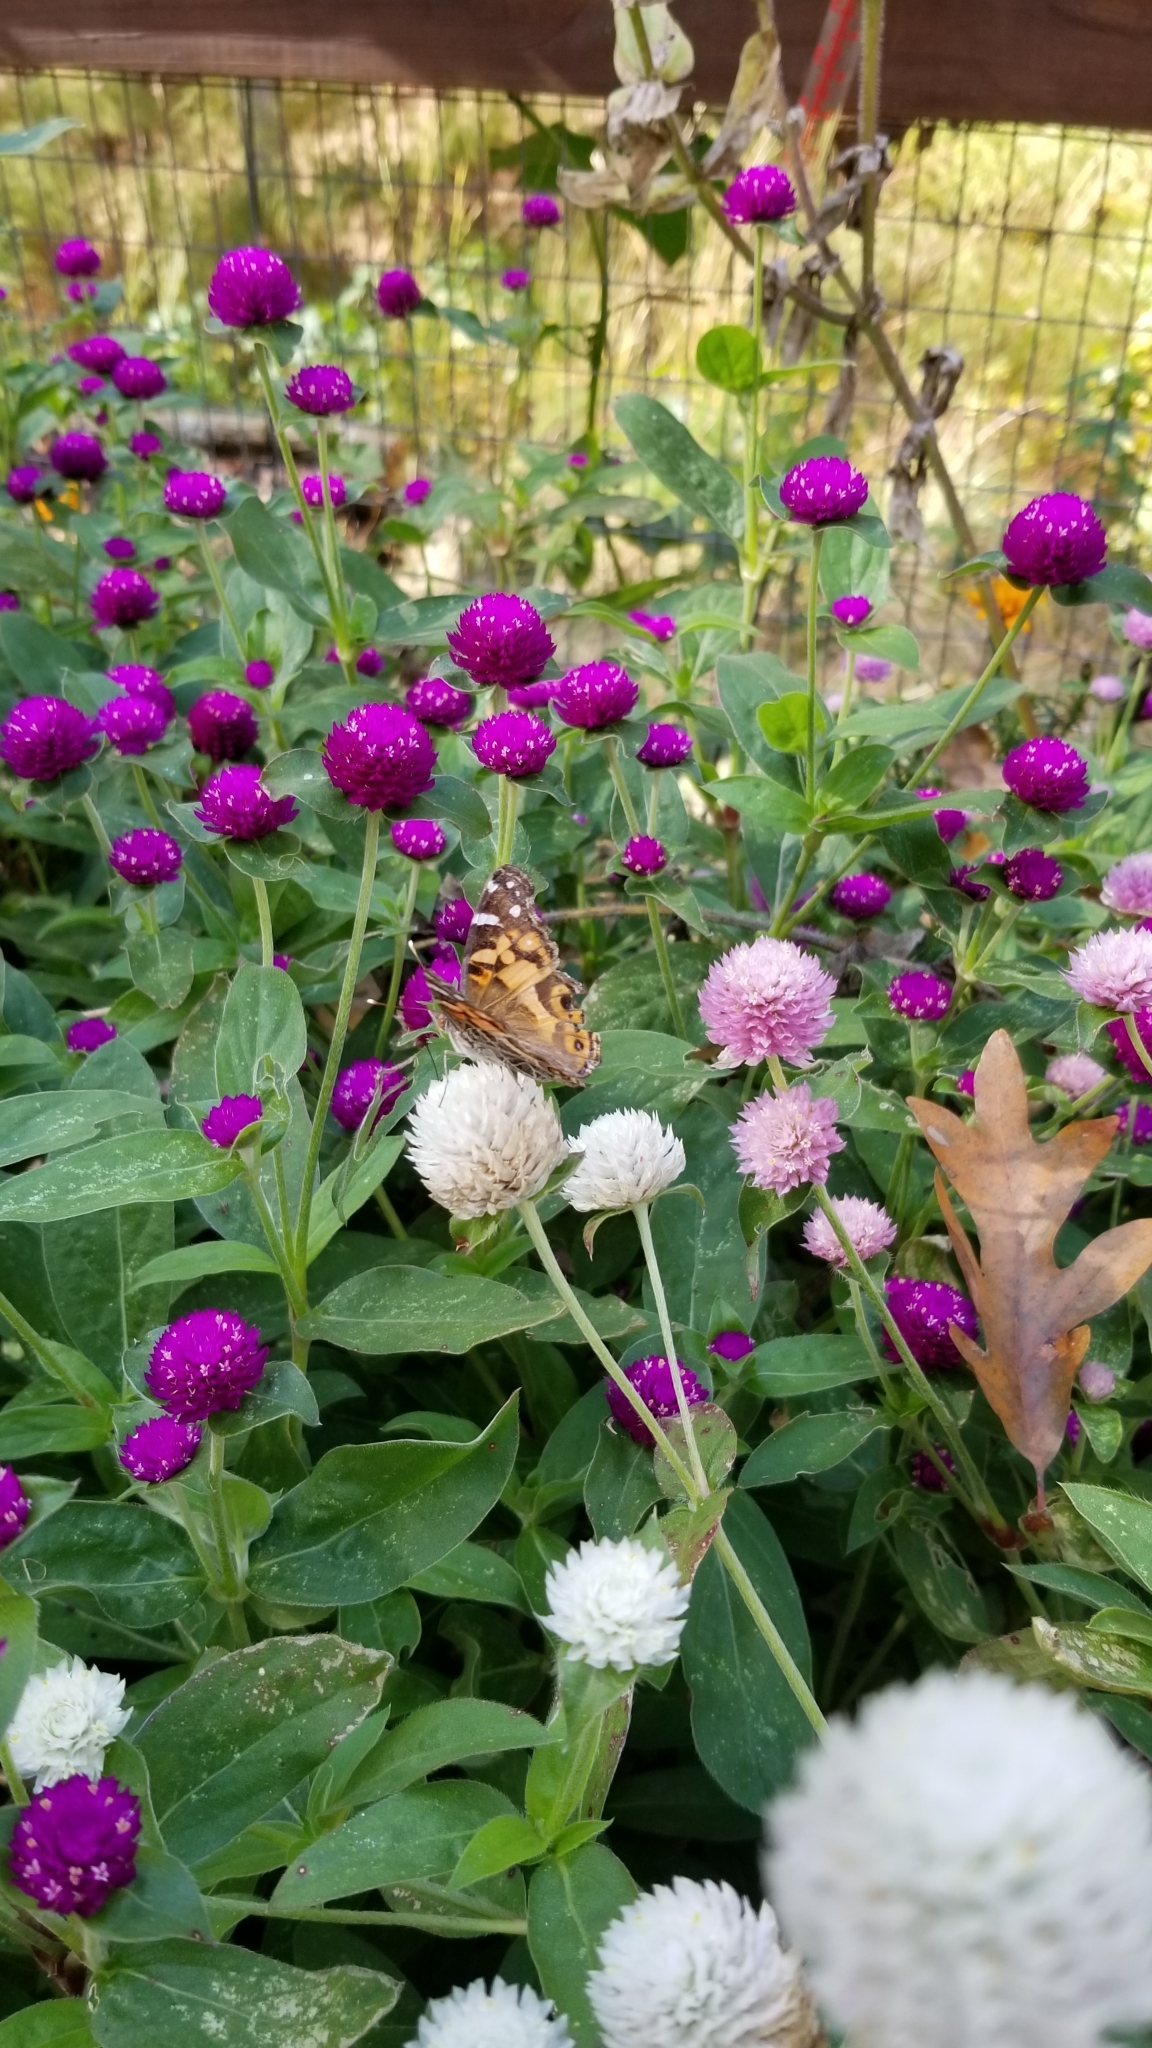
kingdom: Animalia
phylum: Arthropoda
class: Insecta
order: Lepidoptera
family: Nymphalidae
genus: Vanessa
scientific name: Vanessa virginiensis
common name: American lady
